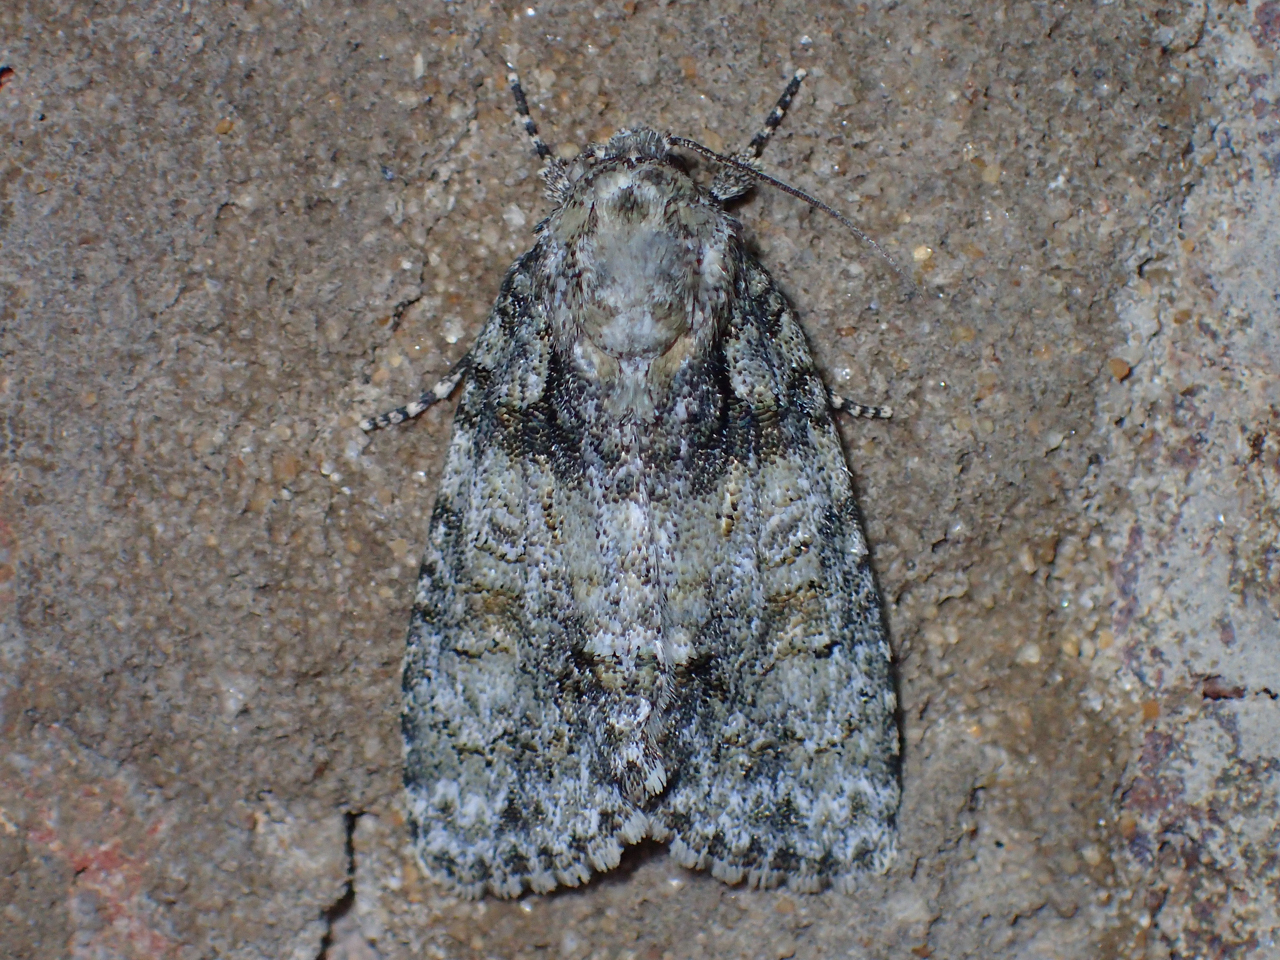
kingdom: Animalia
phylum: Arthropoda
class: Insecta
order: Lepidoptera
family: Noctuidae
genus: Acronicta
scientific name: Acronicta increta
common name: Eclipsed oak dagger
